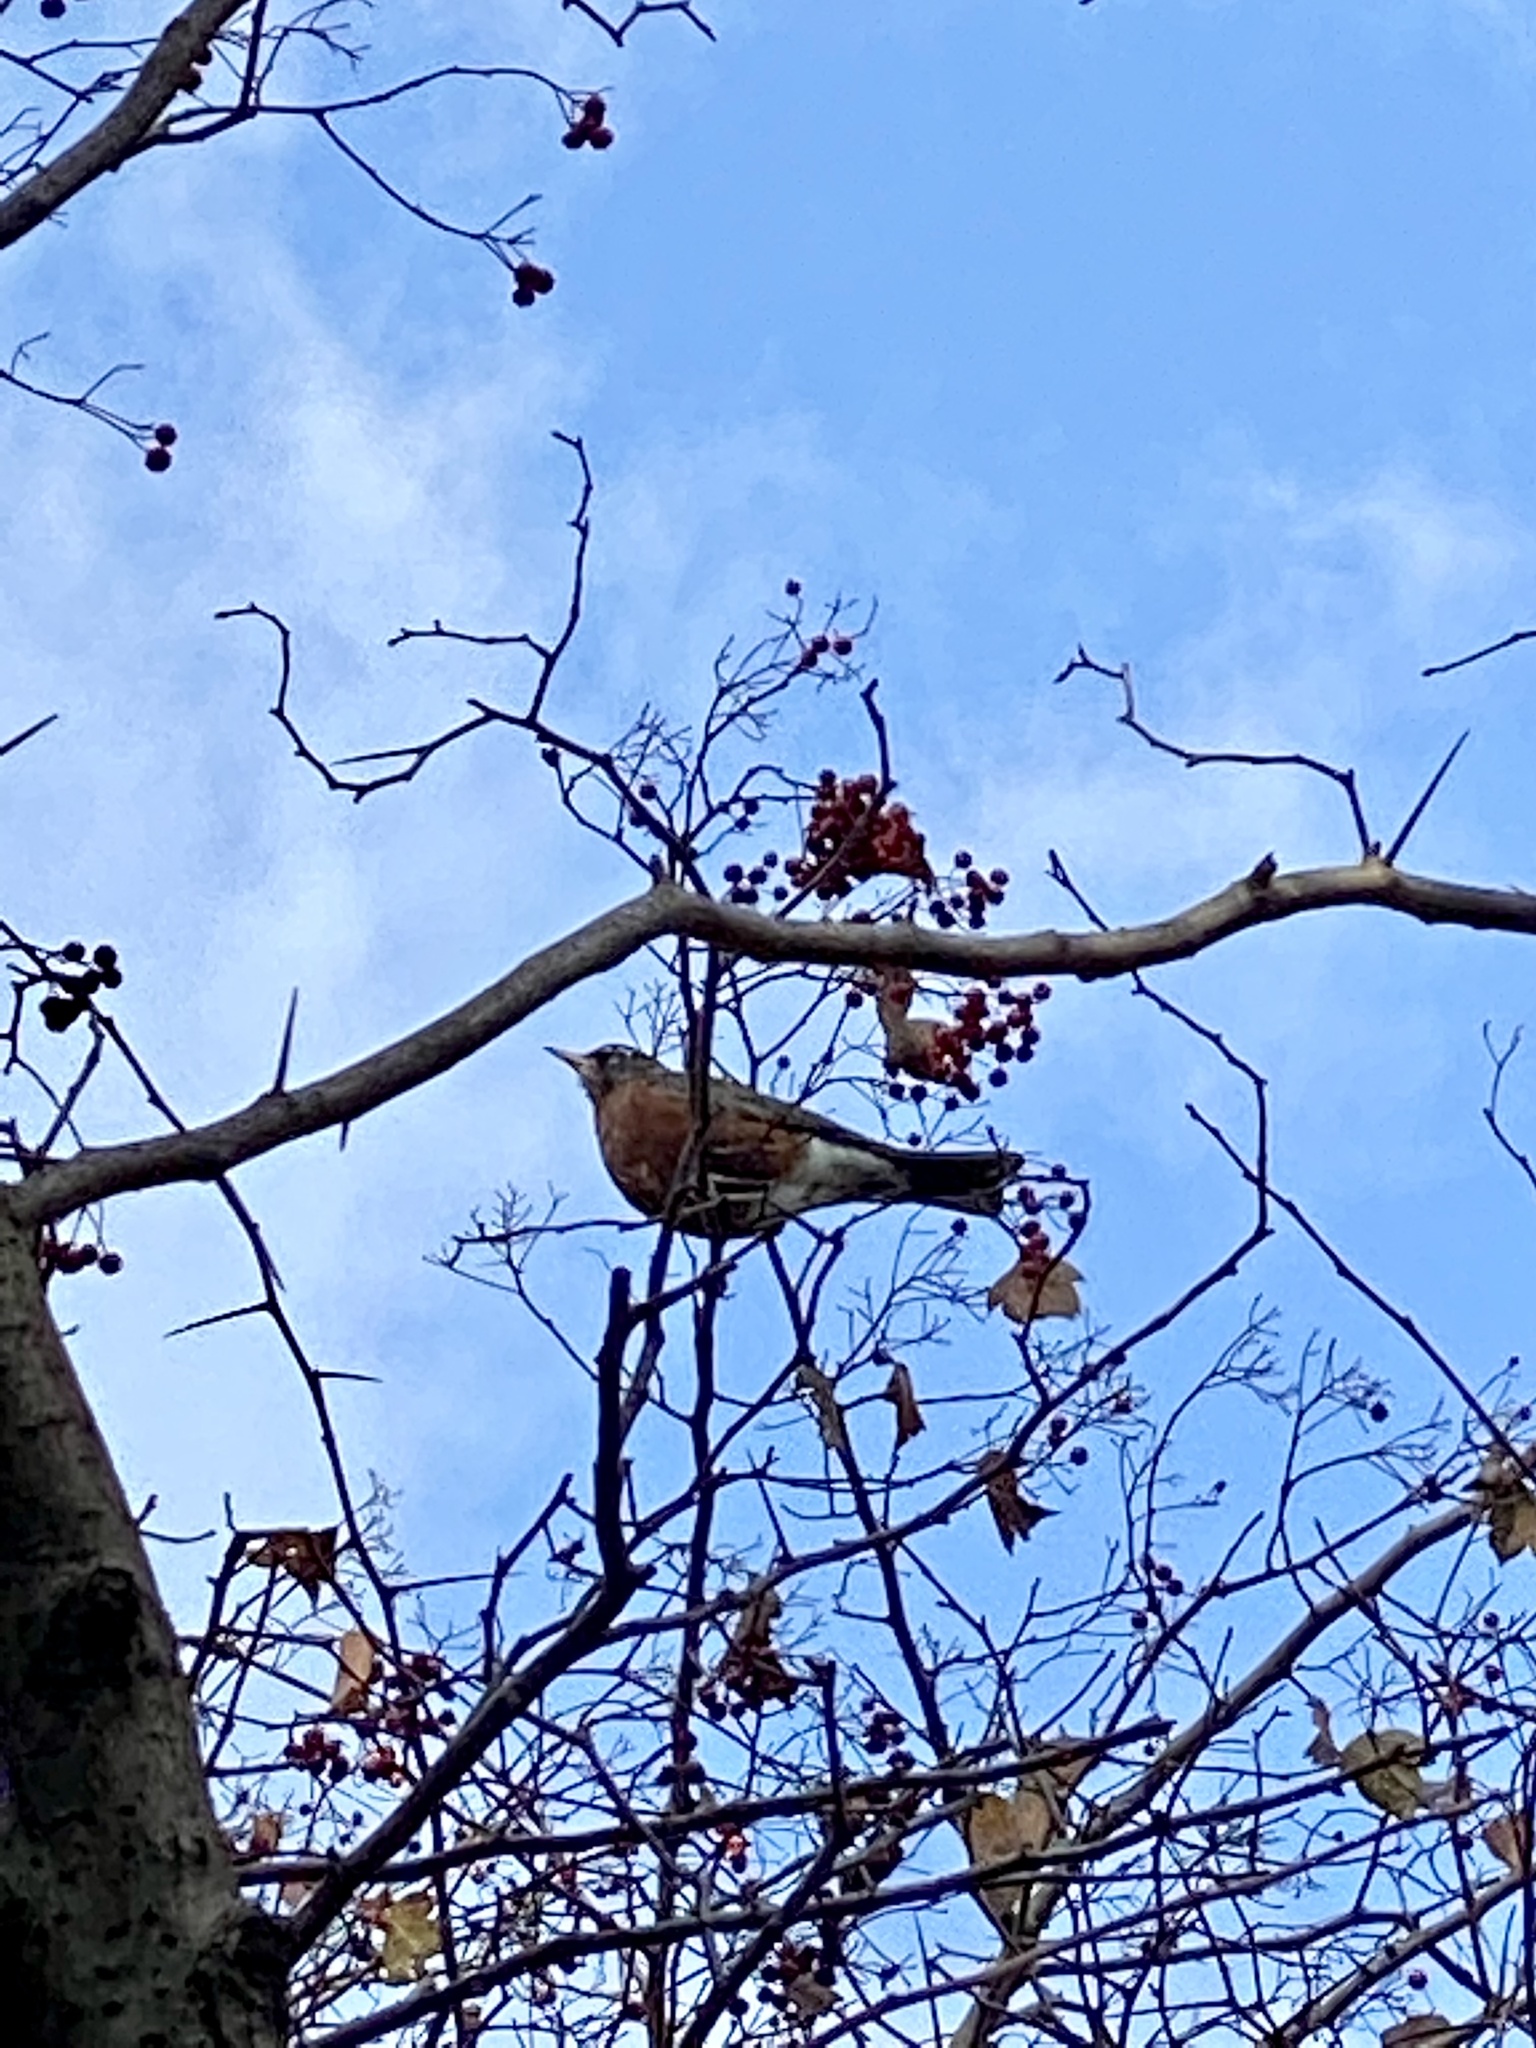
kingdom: Animalia
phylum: Chordata
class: Aves
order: Passeriformes
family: Turdidae
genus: Turdus
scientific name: Turdus migratorius
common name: American robin
